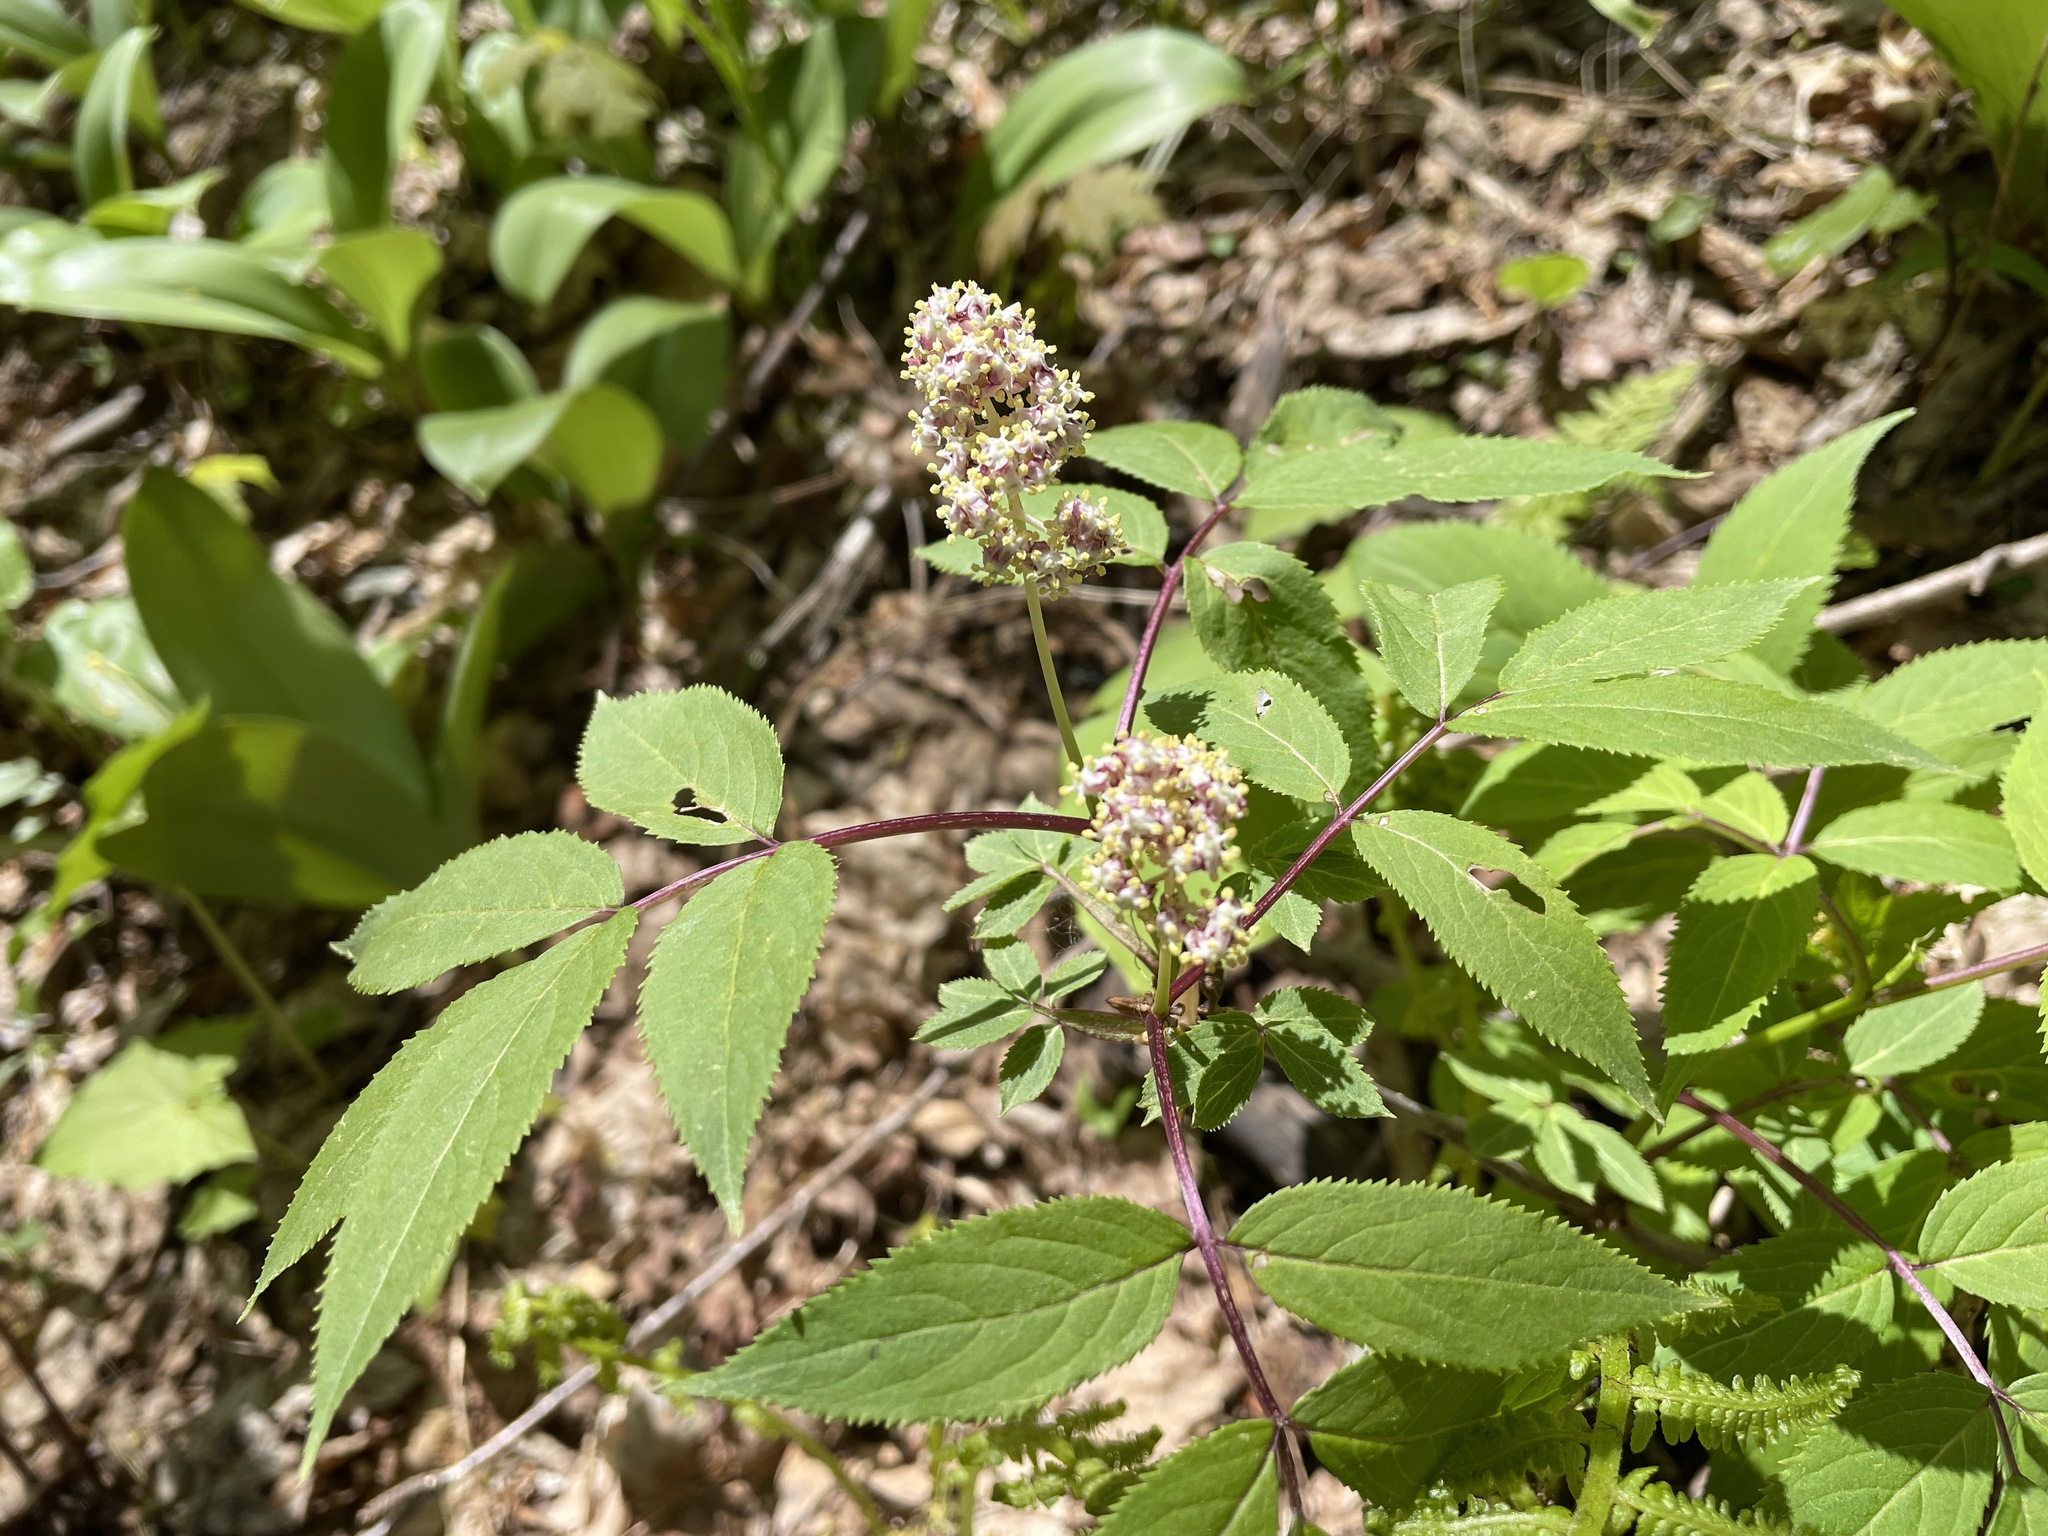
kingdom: Plantae
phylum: Tracheophyta
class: Magnoliopsida
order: Dipsacales
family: Viburnaceae
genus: Sambucus
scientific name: Sambucus racemosa
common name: Red-berried elder
